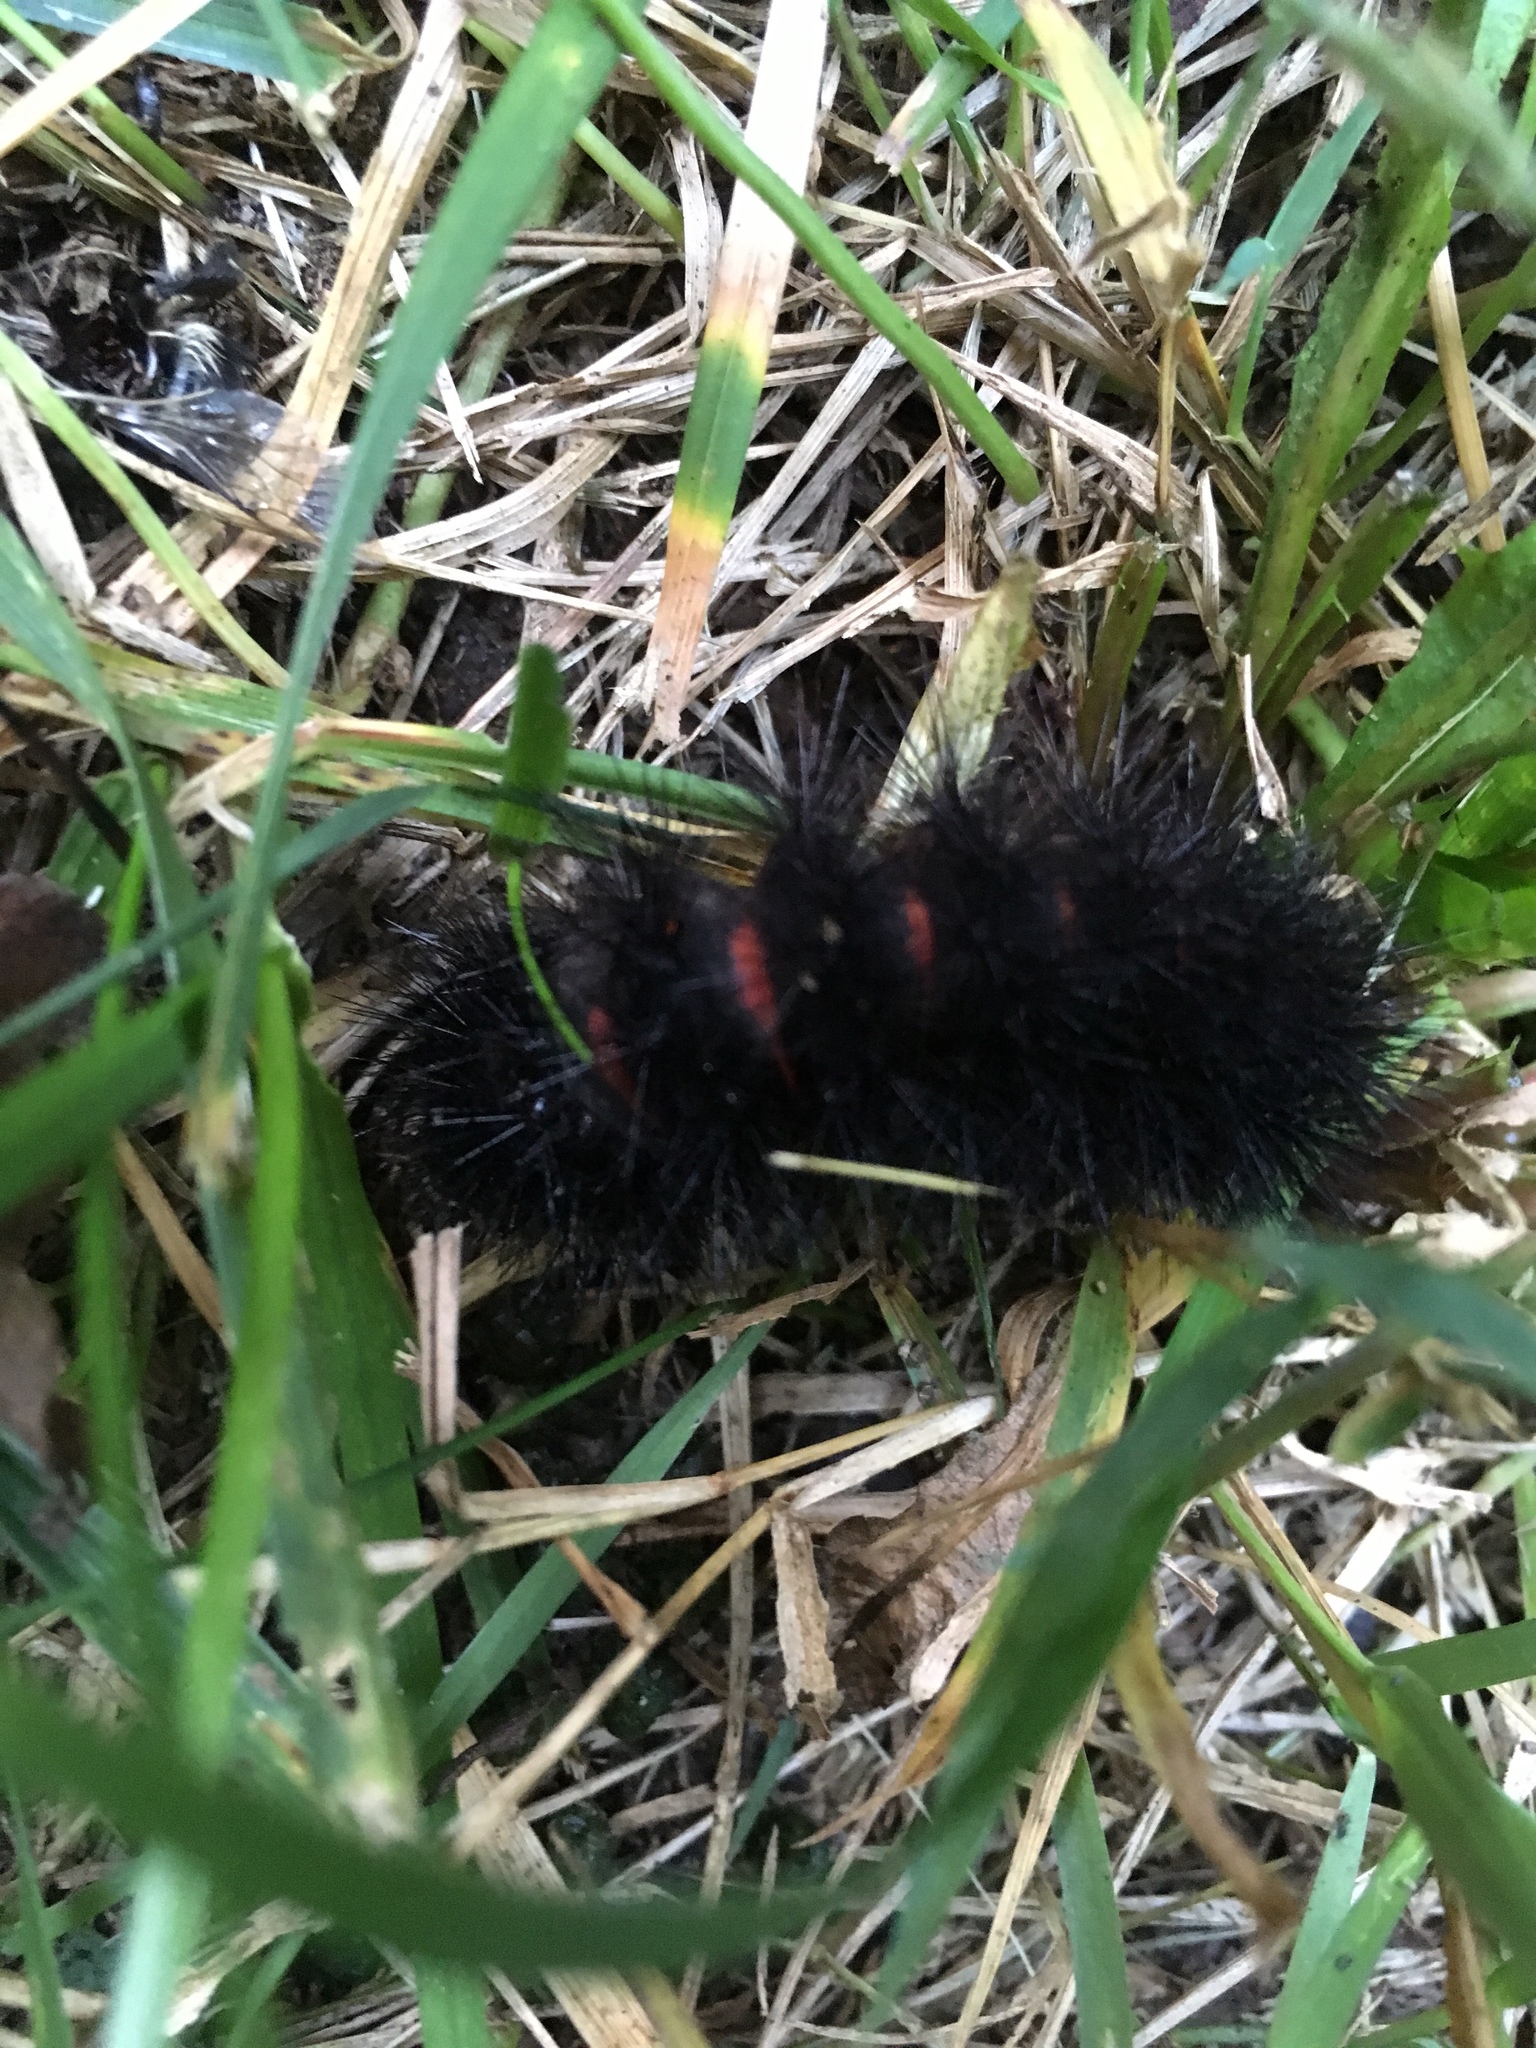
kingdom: Animalia
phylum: Arthropoda
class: Insecta
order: Lepidoptera
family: Erebidae
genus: Hypercompe
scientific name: Hypercompe scribonia
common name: Giant leopard moth
